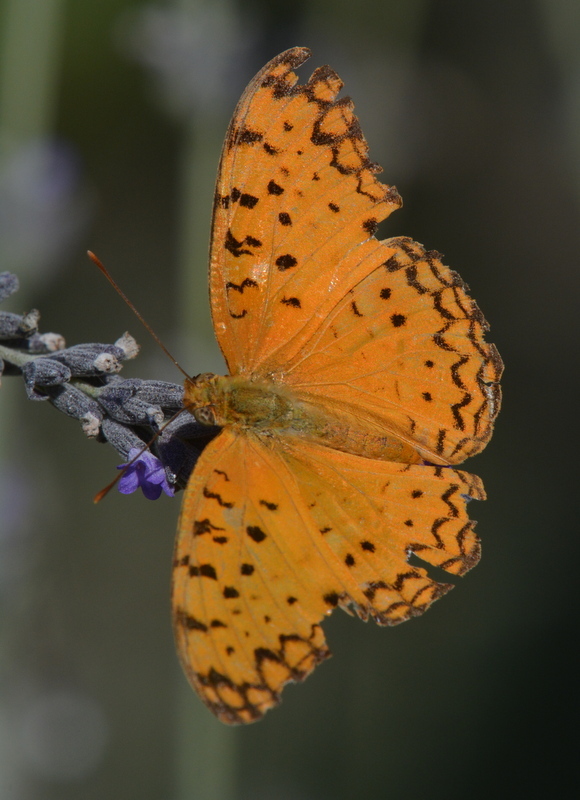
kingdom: Animalia
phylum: Arthropoda
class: Insecta
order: Lepidoptera
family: Nymphalidae
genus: Phalanta
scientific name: Phalanta phalantha
